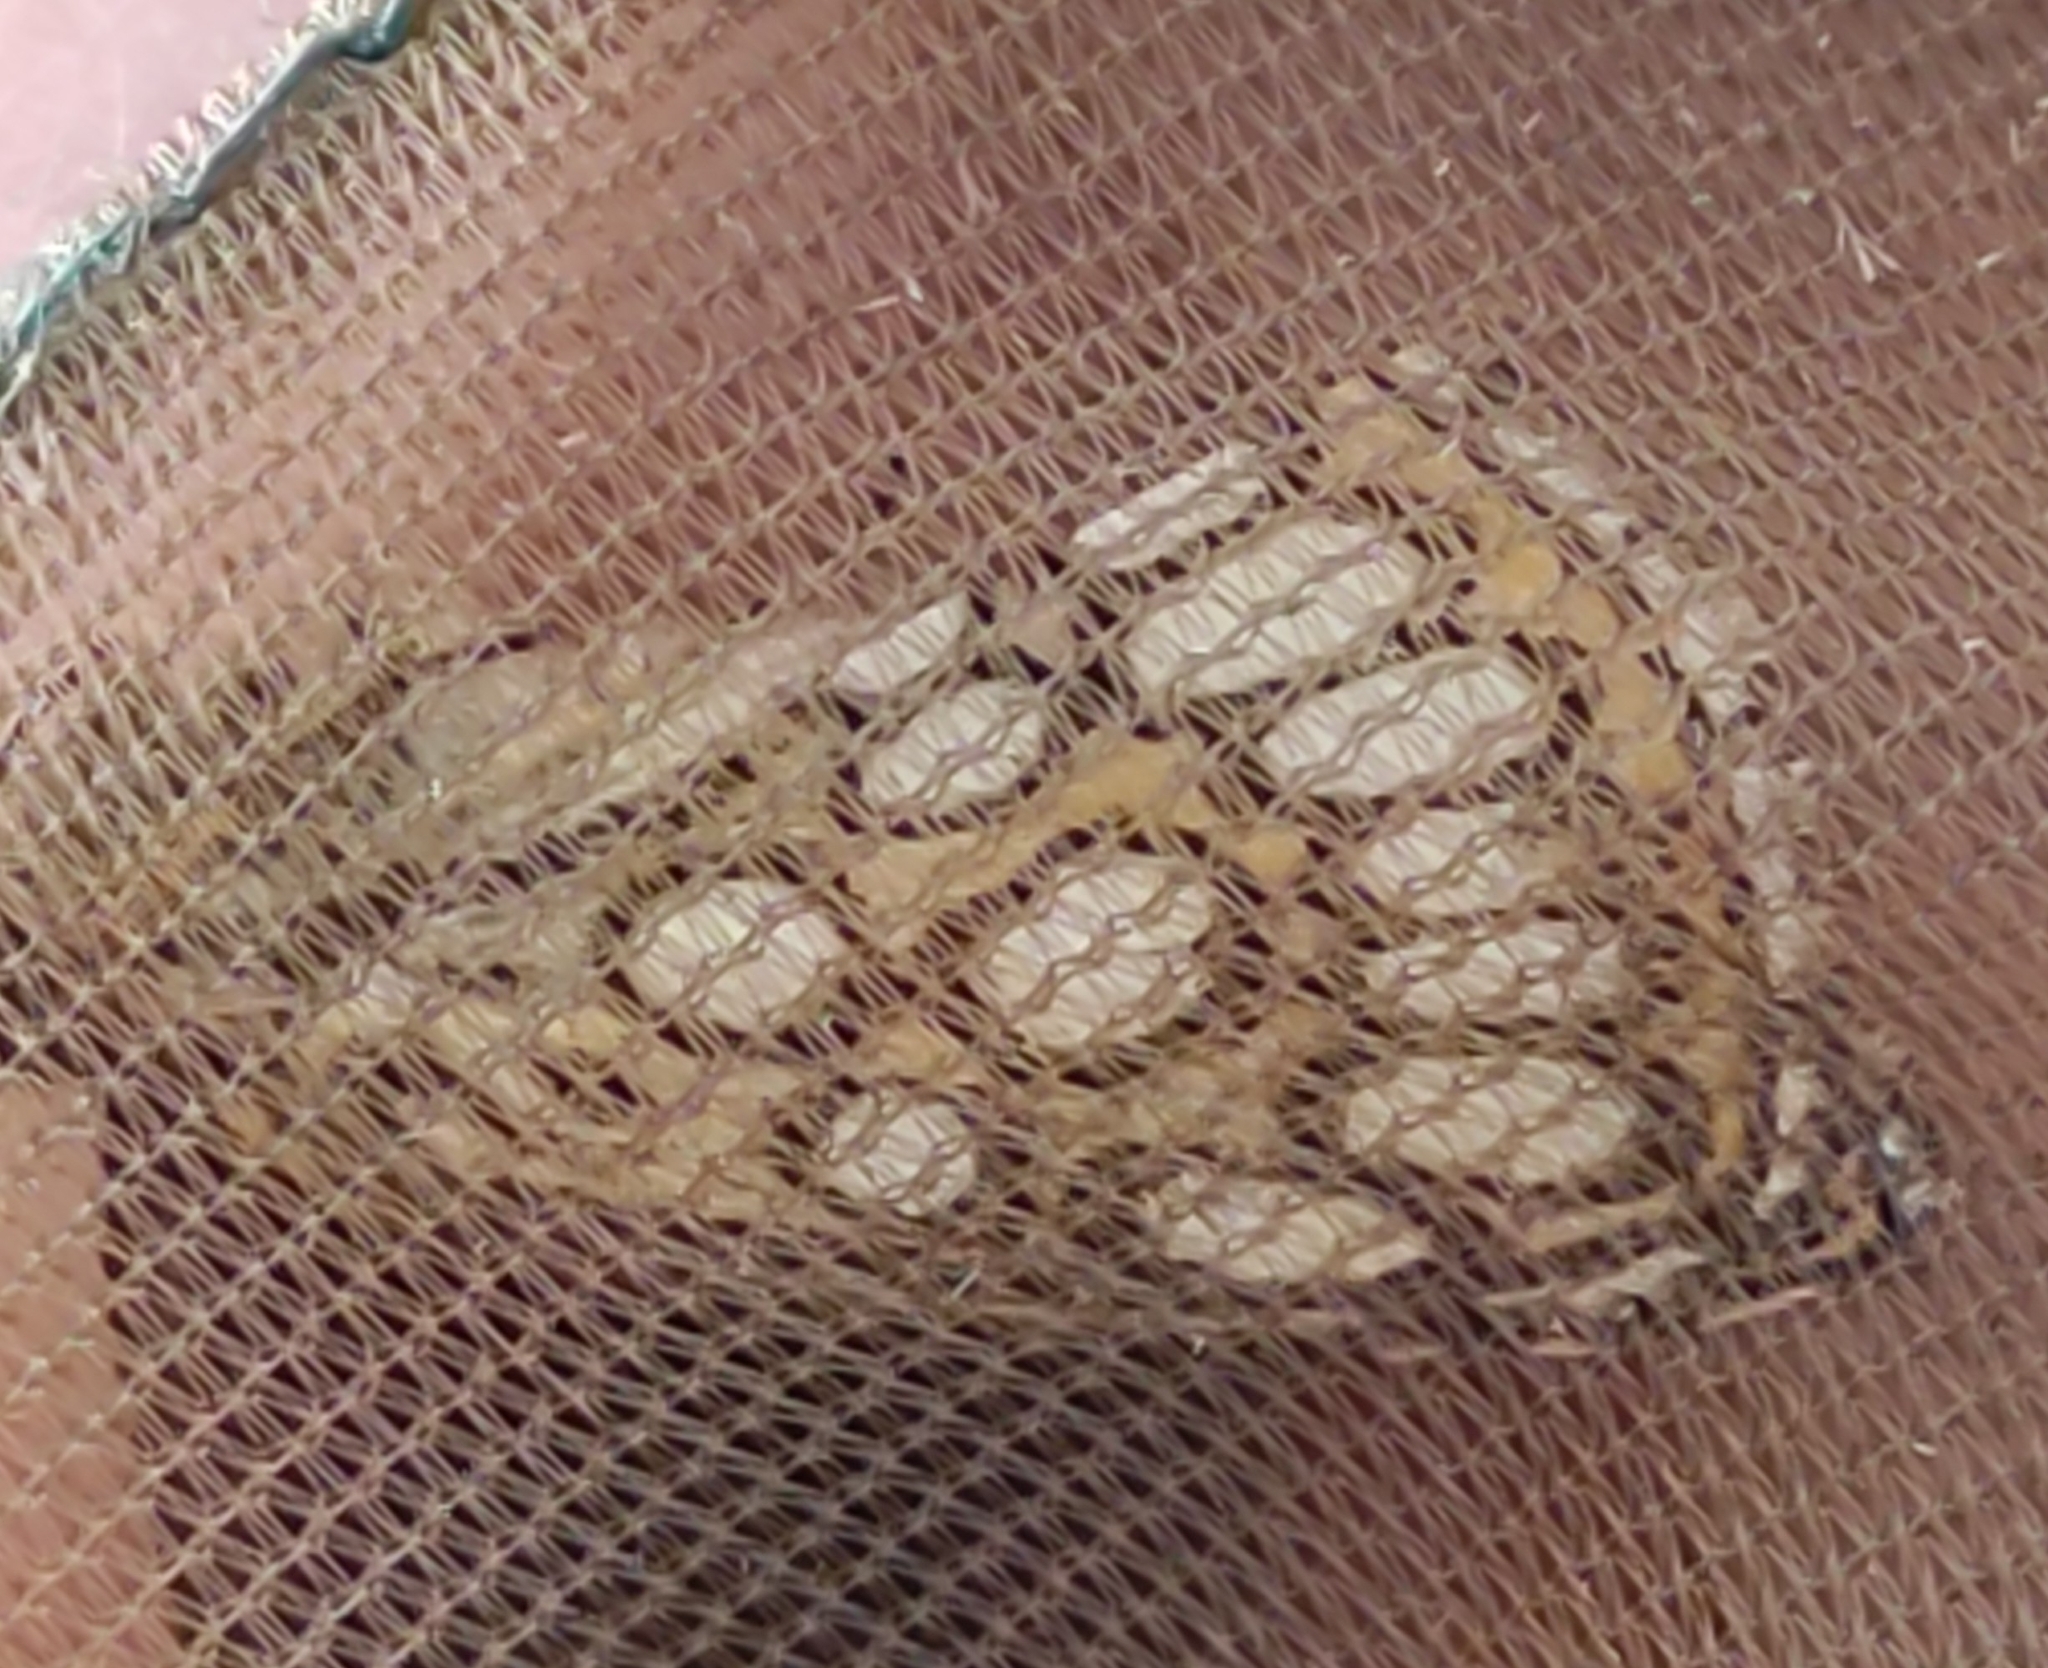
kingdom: Animalia
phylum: Arthropoda
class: Insecta
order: Lepidoptera
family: Hesperiidae
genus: Heteropterus
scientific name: Heteropterus morpheus
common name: Large chequered skipper
